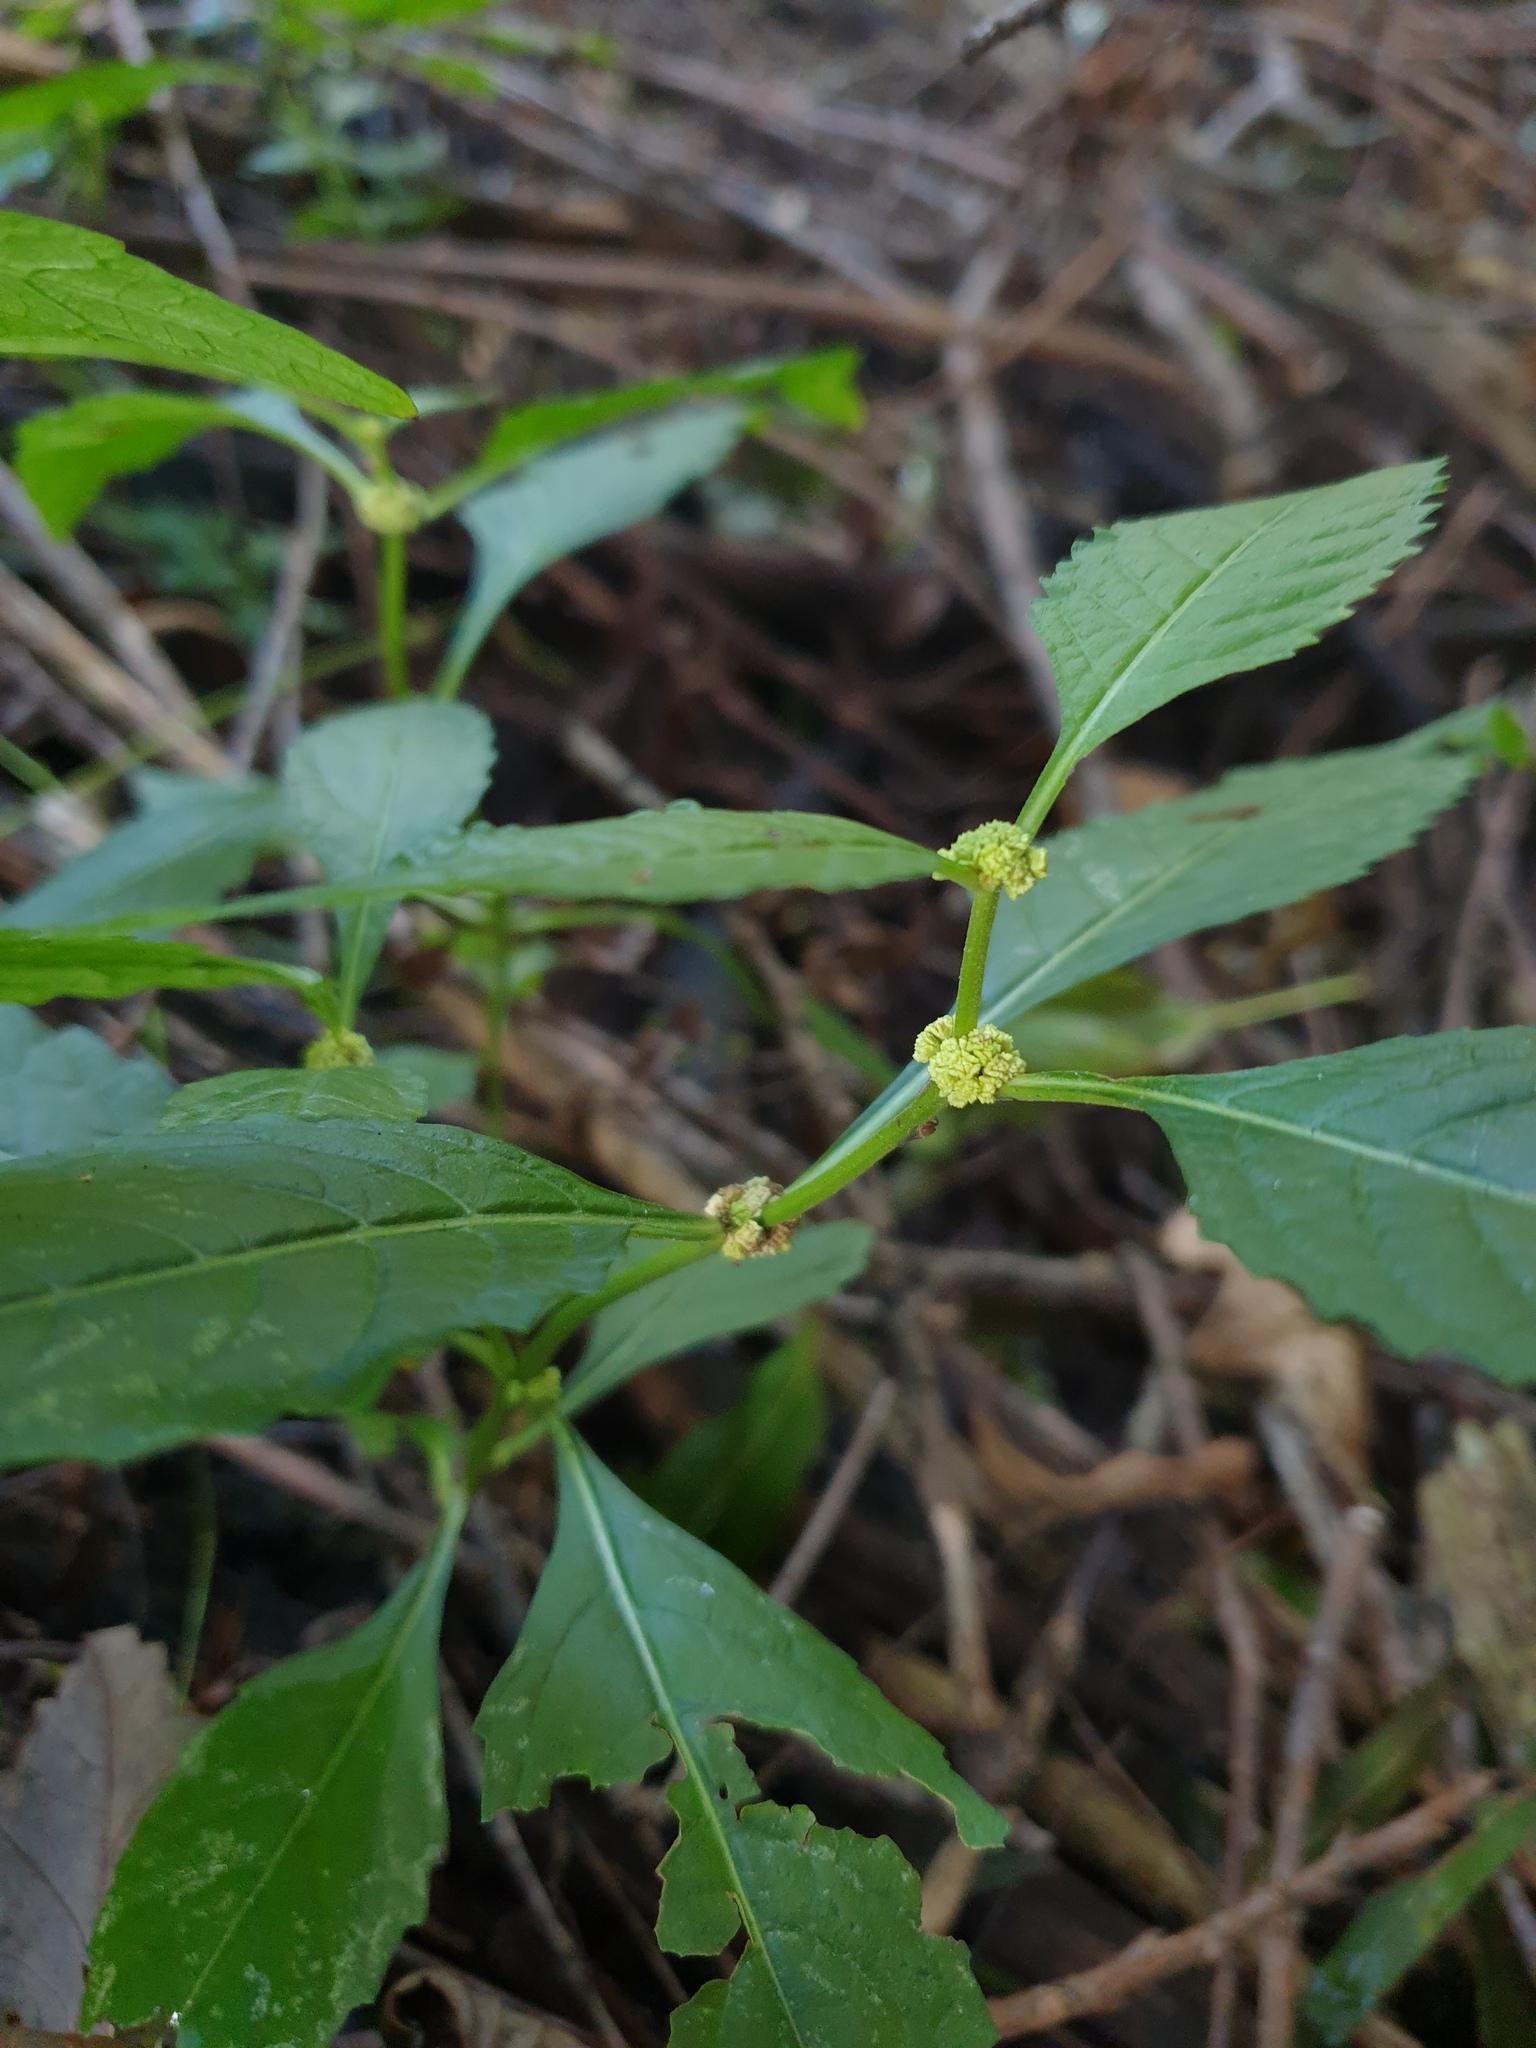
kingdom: Plantae
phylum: Tracheophyta
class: Magnoliopsida
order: Lamiales
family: Lamiaceae
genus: Lycopus
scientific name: Lycopus virginicus
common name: Bugleweed
